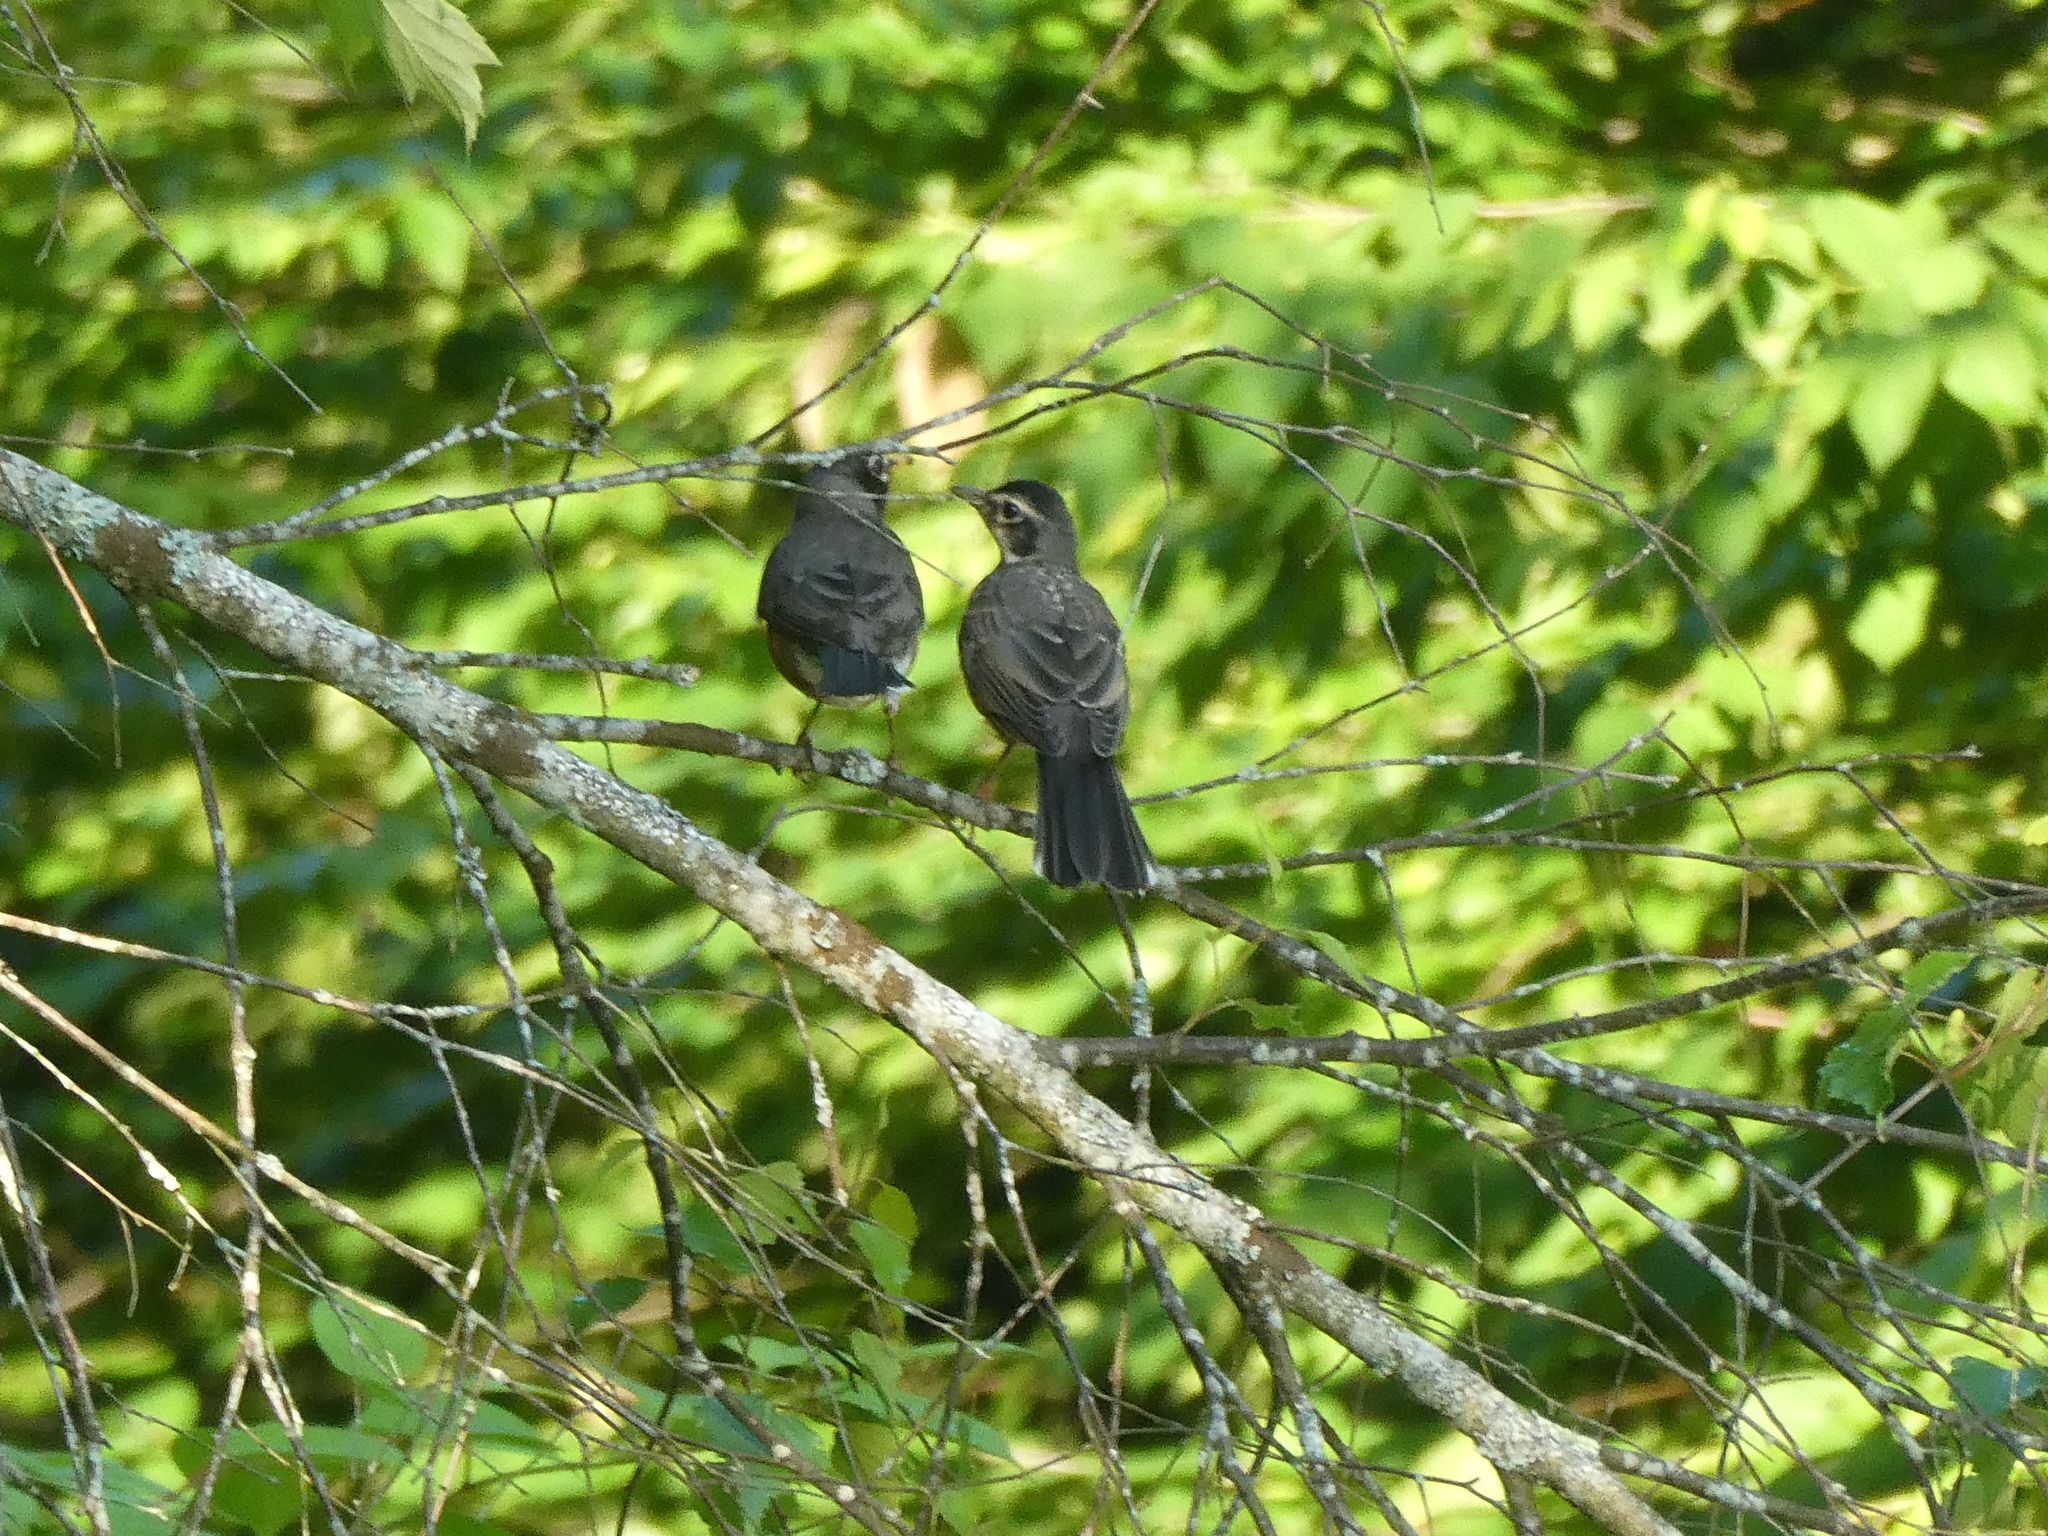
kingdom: Animalia
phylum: Chordata
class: Aves
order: Passeriformes
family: Turdidae
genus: Turdus
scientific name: Turdus migratorius
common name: American robin
